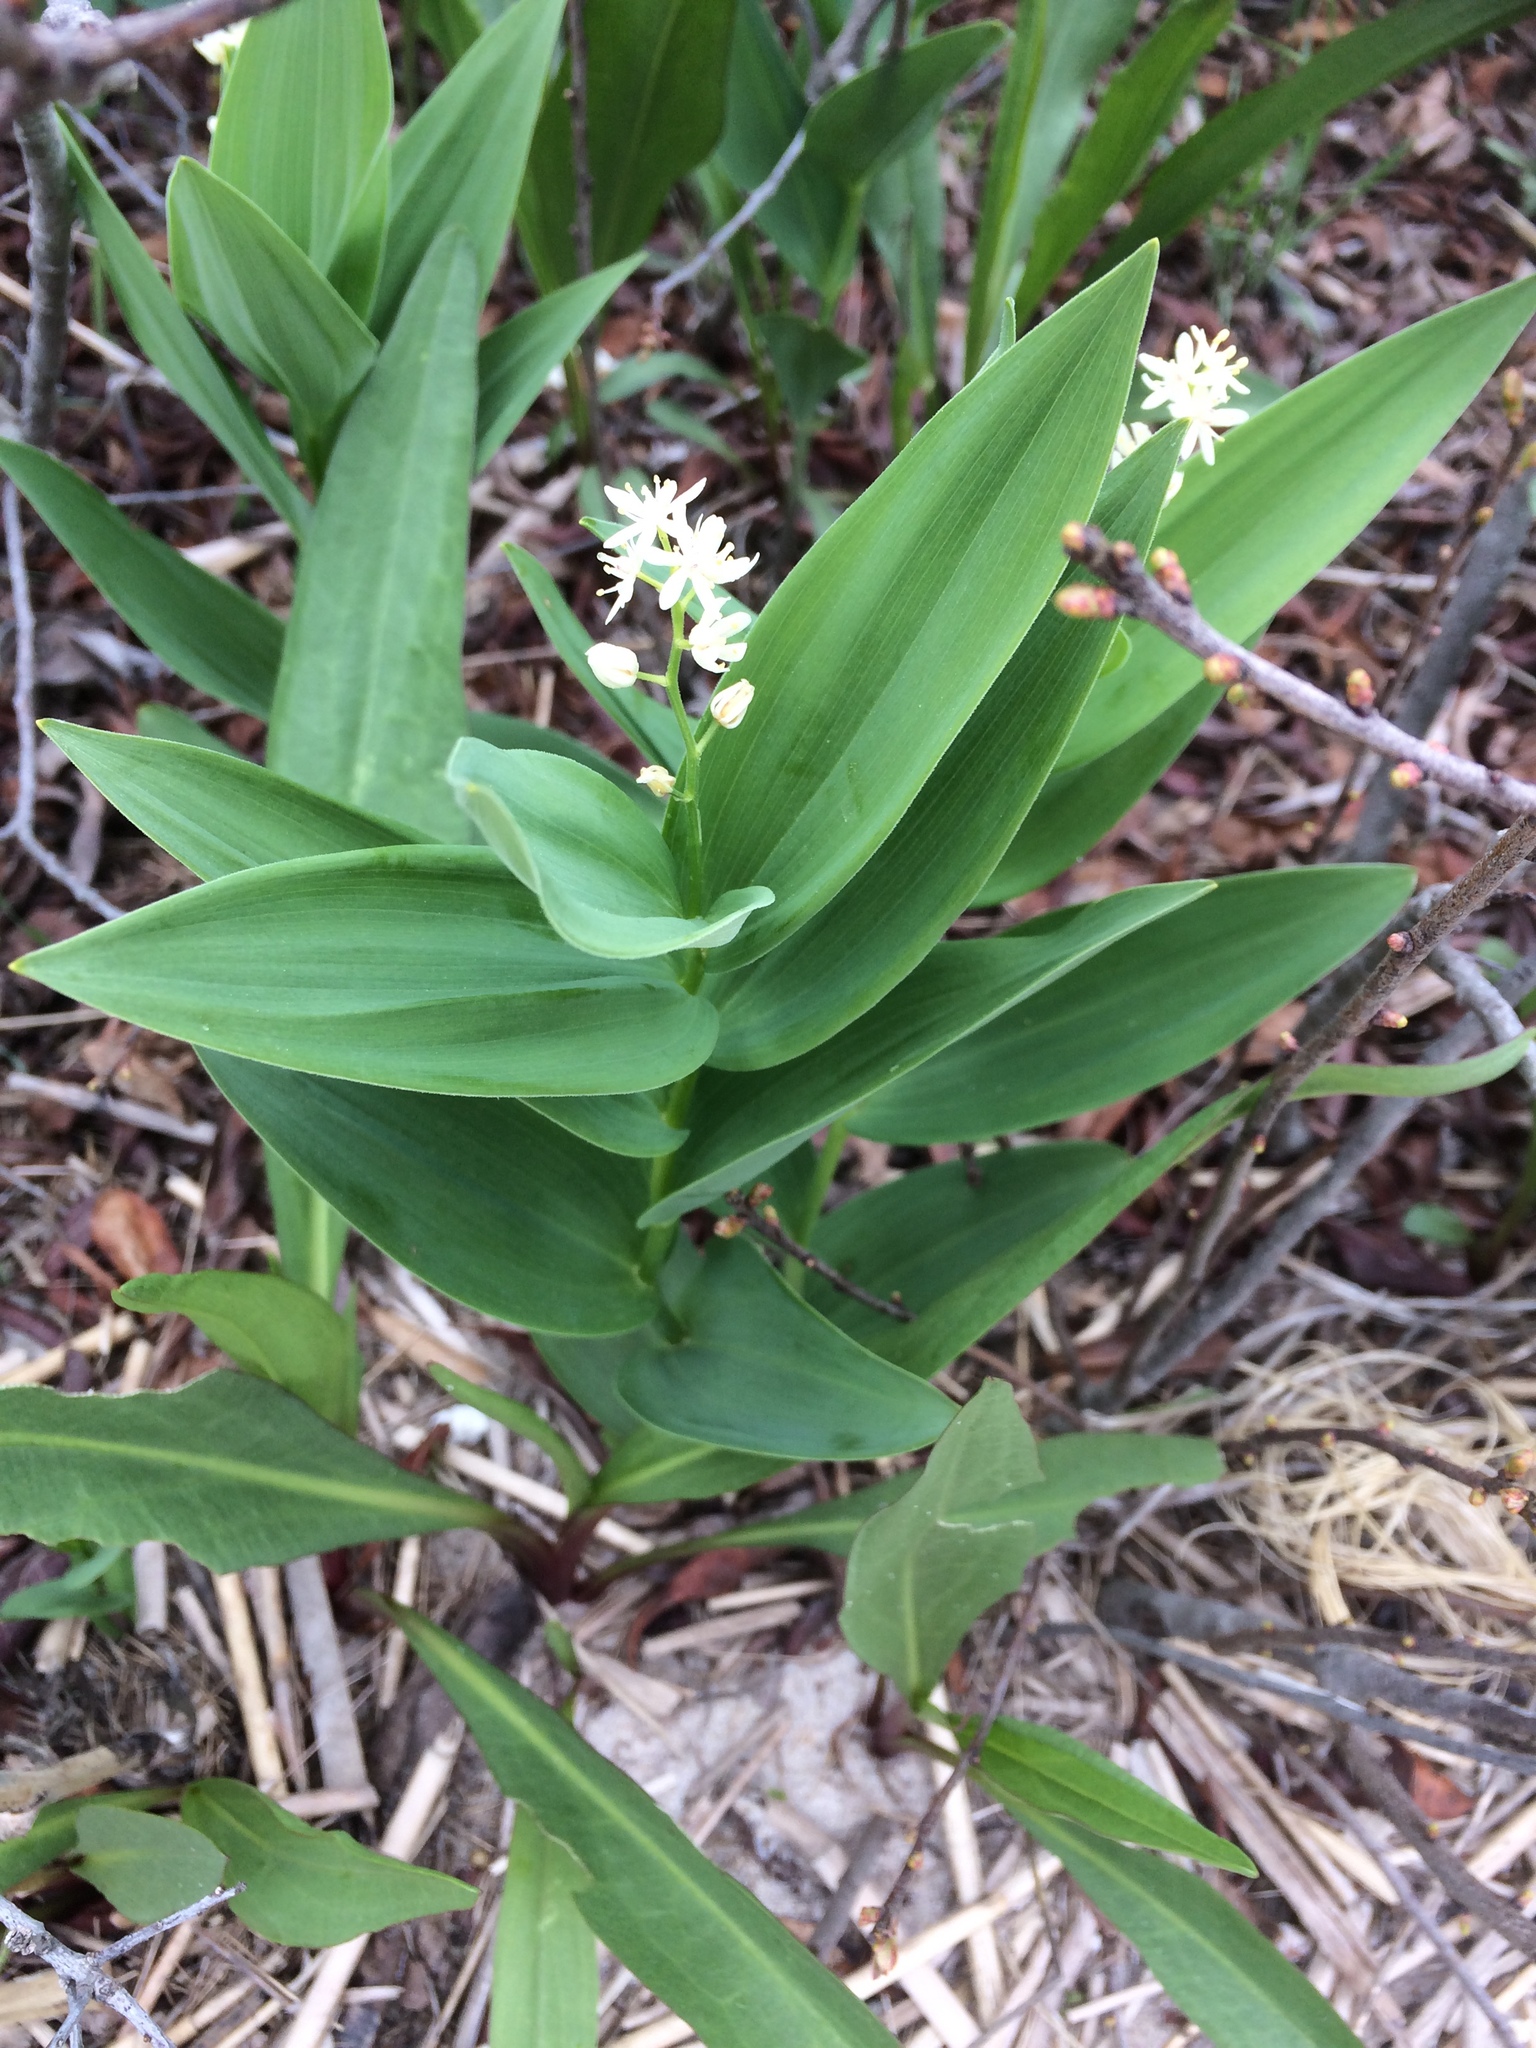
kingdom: Plantae
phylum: Tracheophyta
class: Liliopsida
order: Asparagales
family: Asparagaceae
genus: Maianthemum
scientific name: Maianthemum stellatum
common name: Little false solomon's seal
